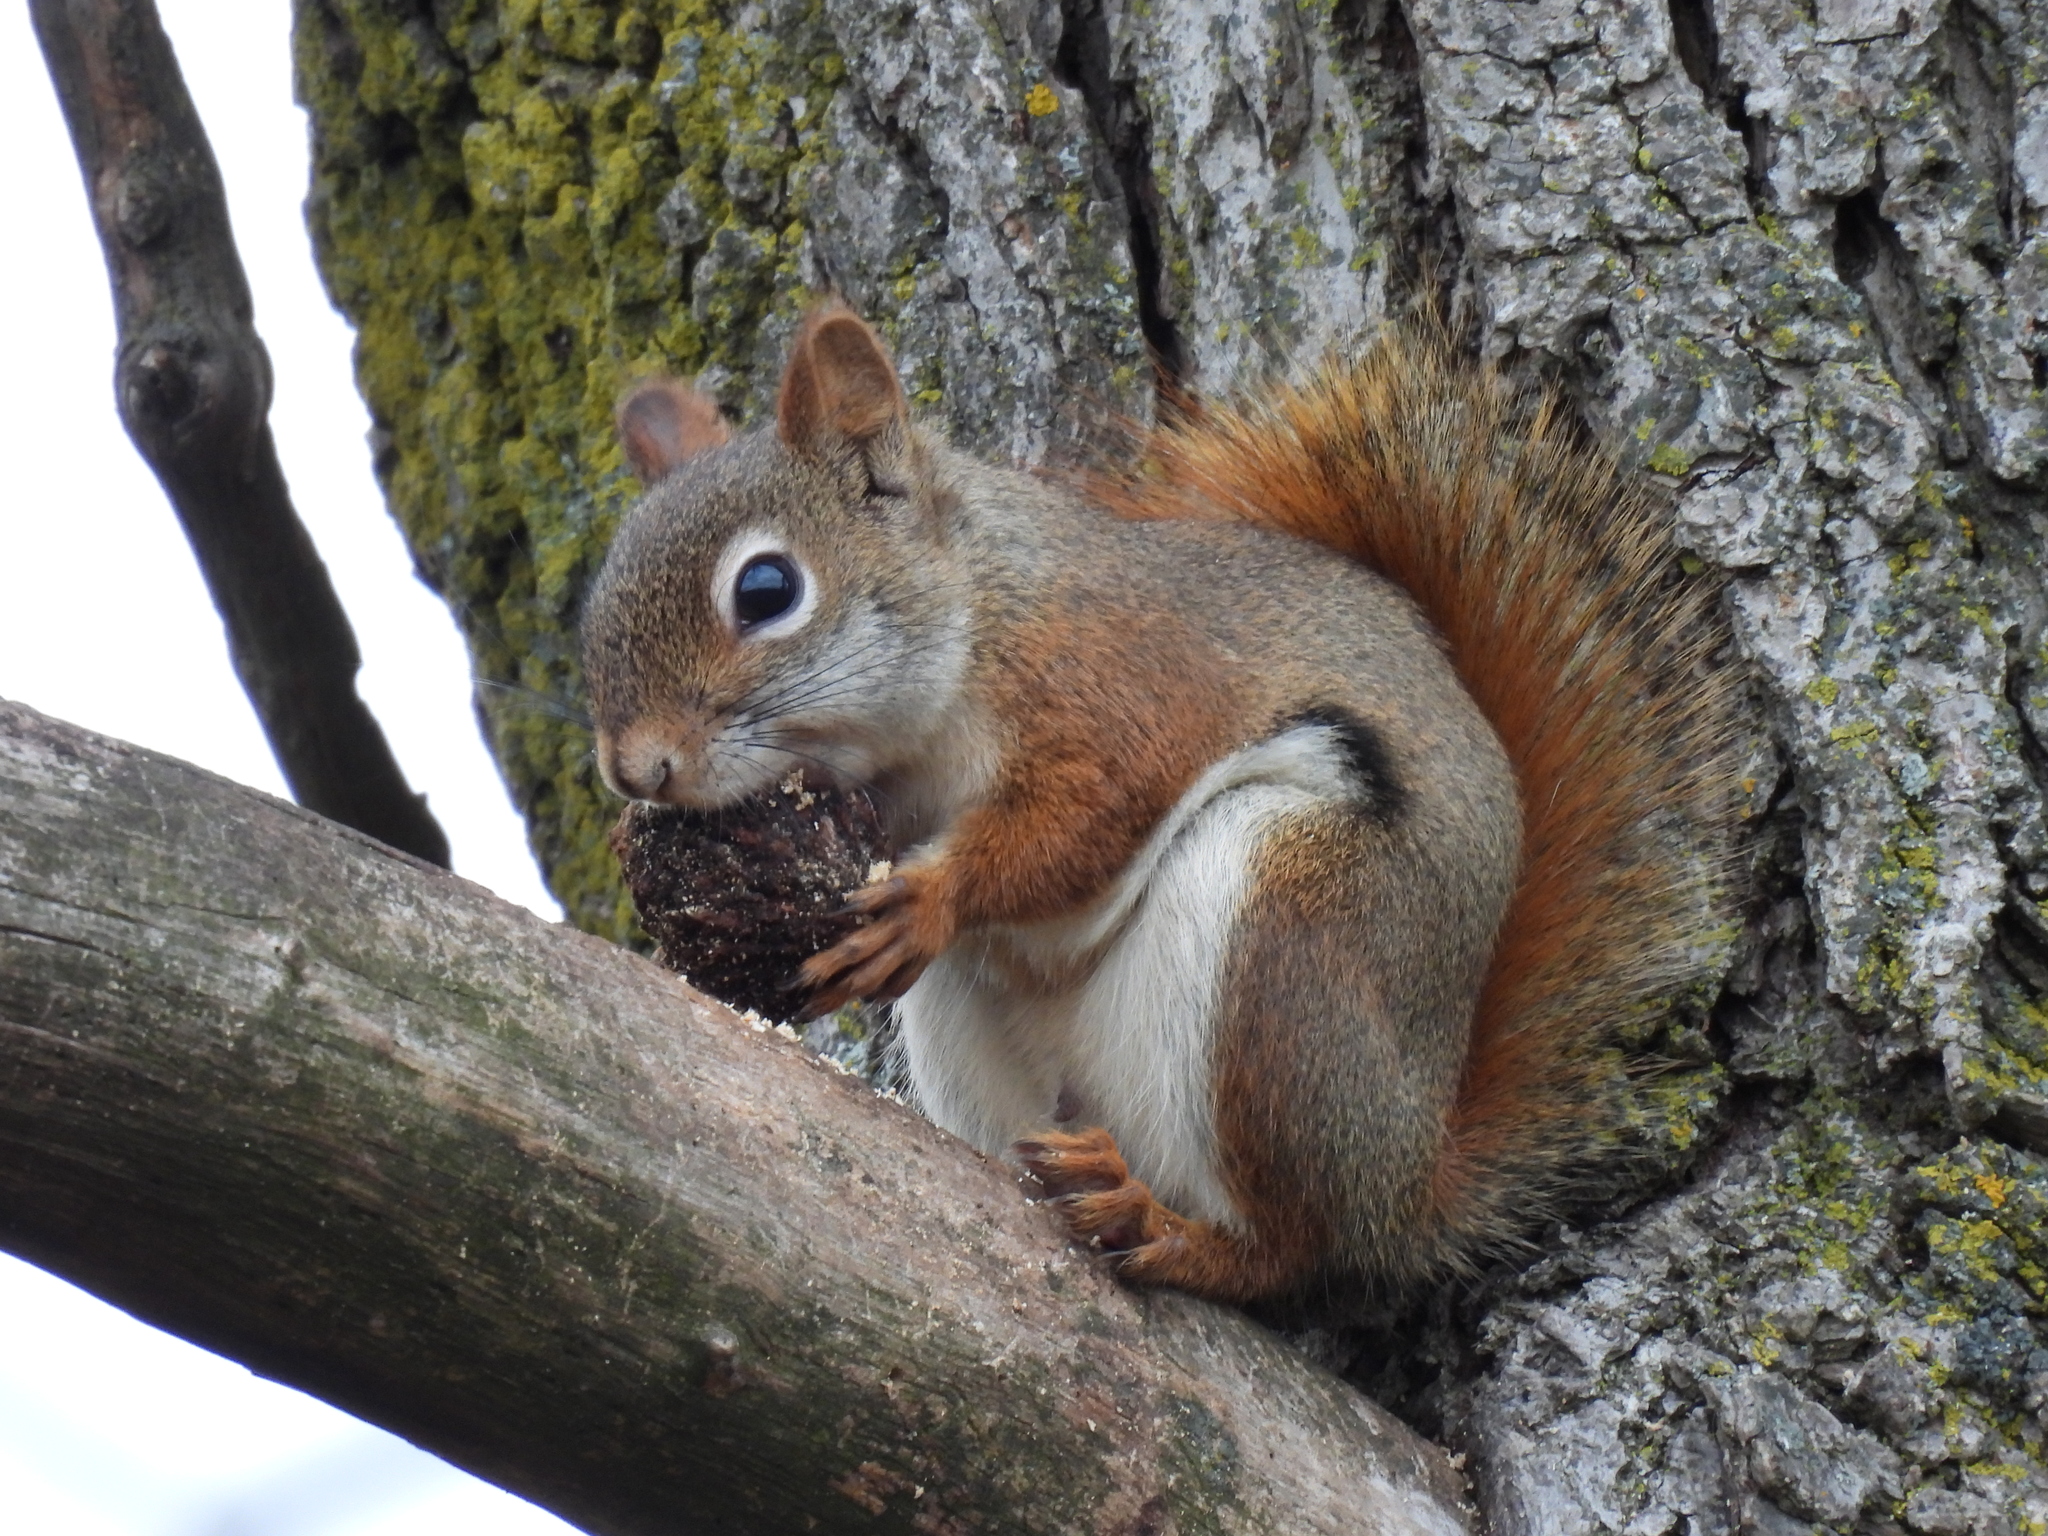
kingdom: Animalia
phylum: Chordata
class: Mammalia
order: Rodentia
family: Sciuridae
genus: Tamiasciurus
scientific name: Tamiasciurus hudsonicus
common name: Red squirrel
